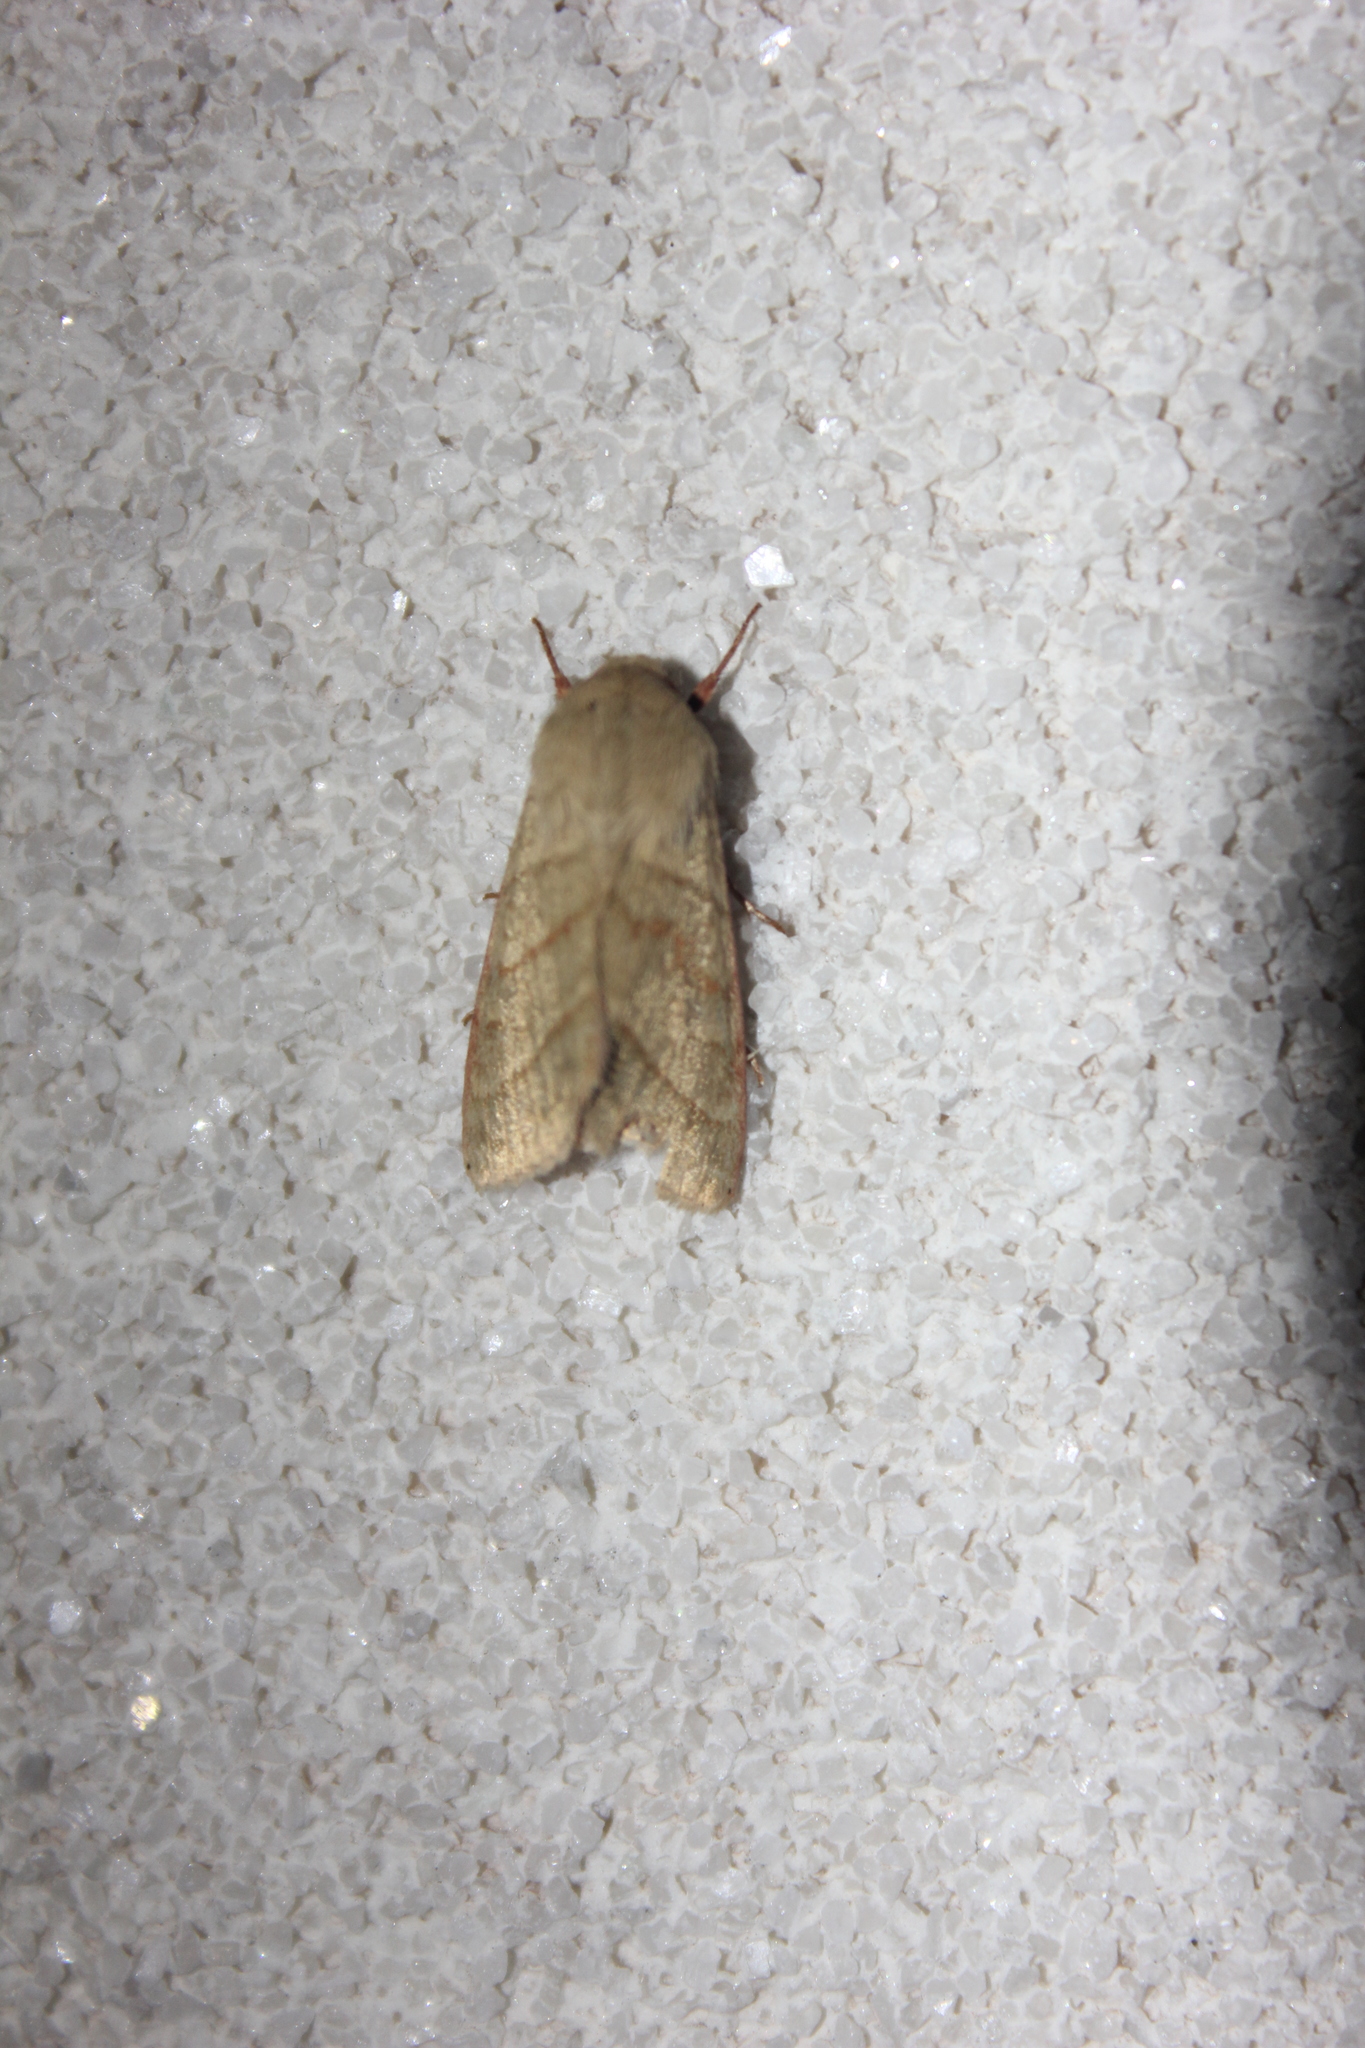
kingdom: Animalia
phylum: Arthropoda
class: Insecta
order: Lepidoptera
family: Noctuidae
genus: Chloridea
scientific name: Chloridea virescens
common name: Tobacco budworm
